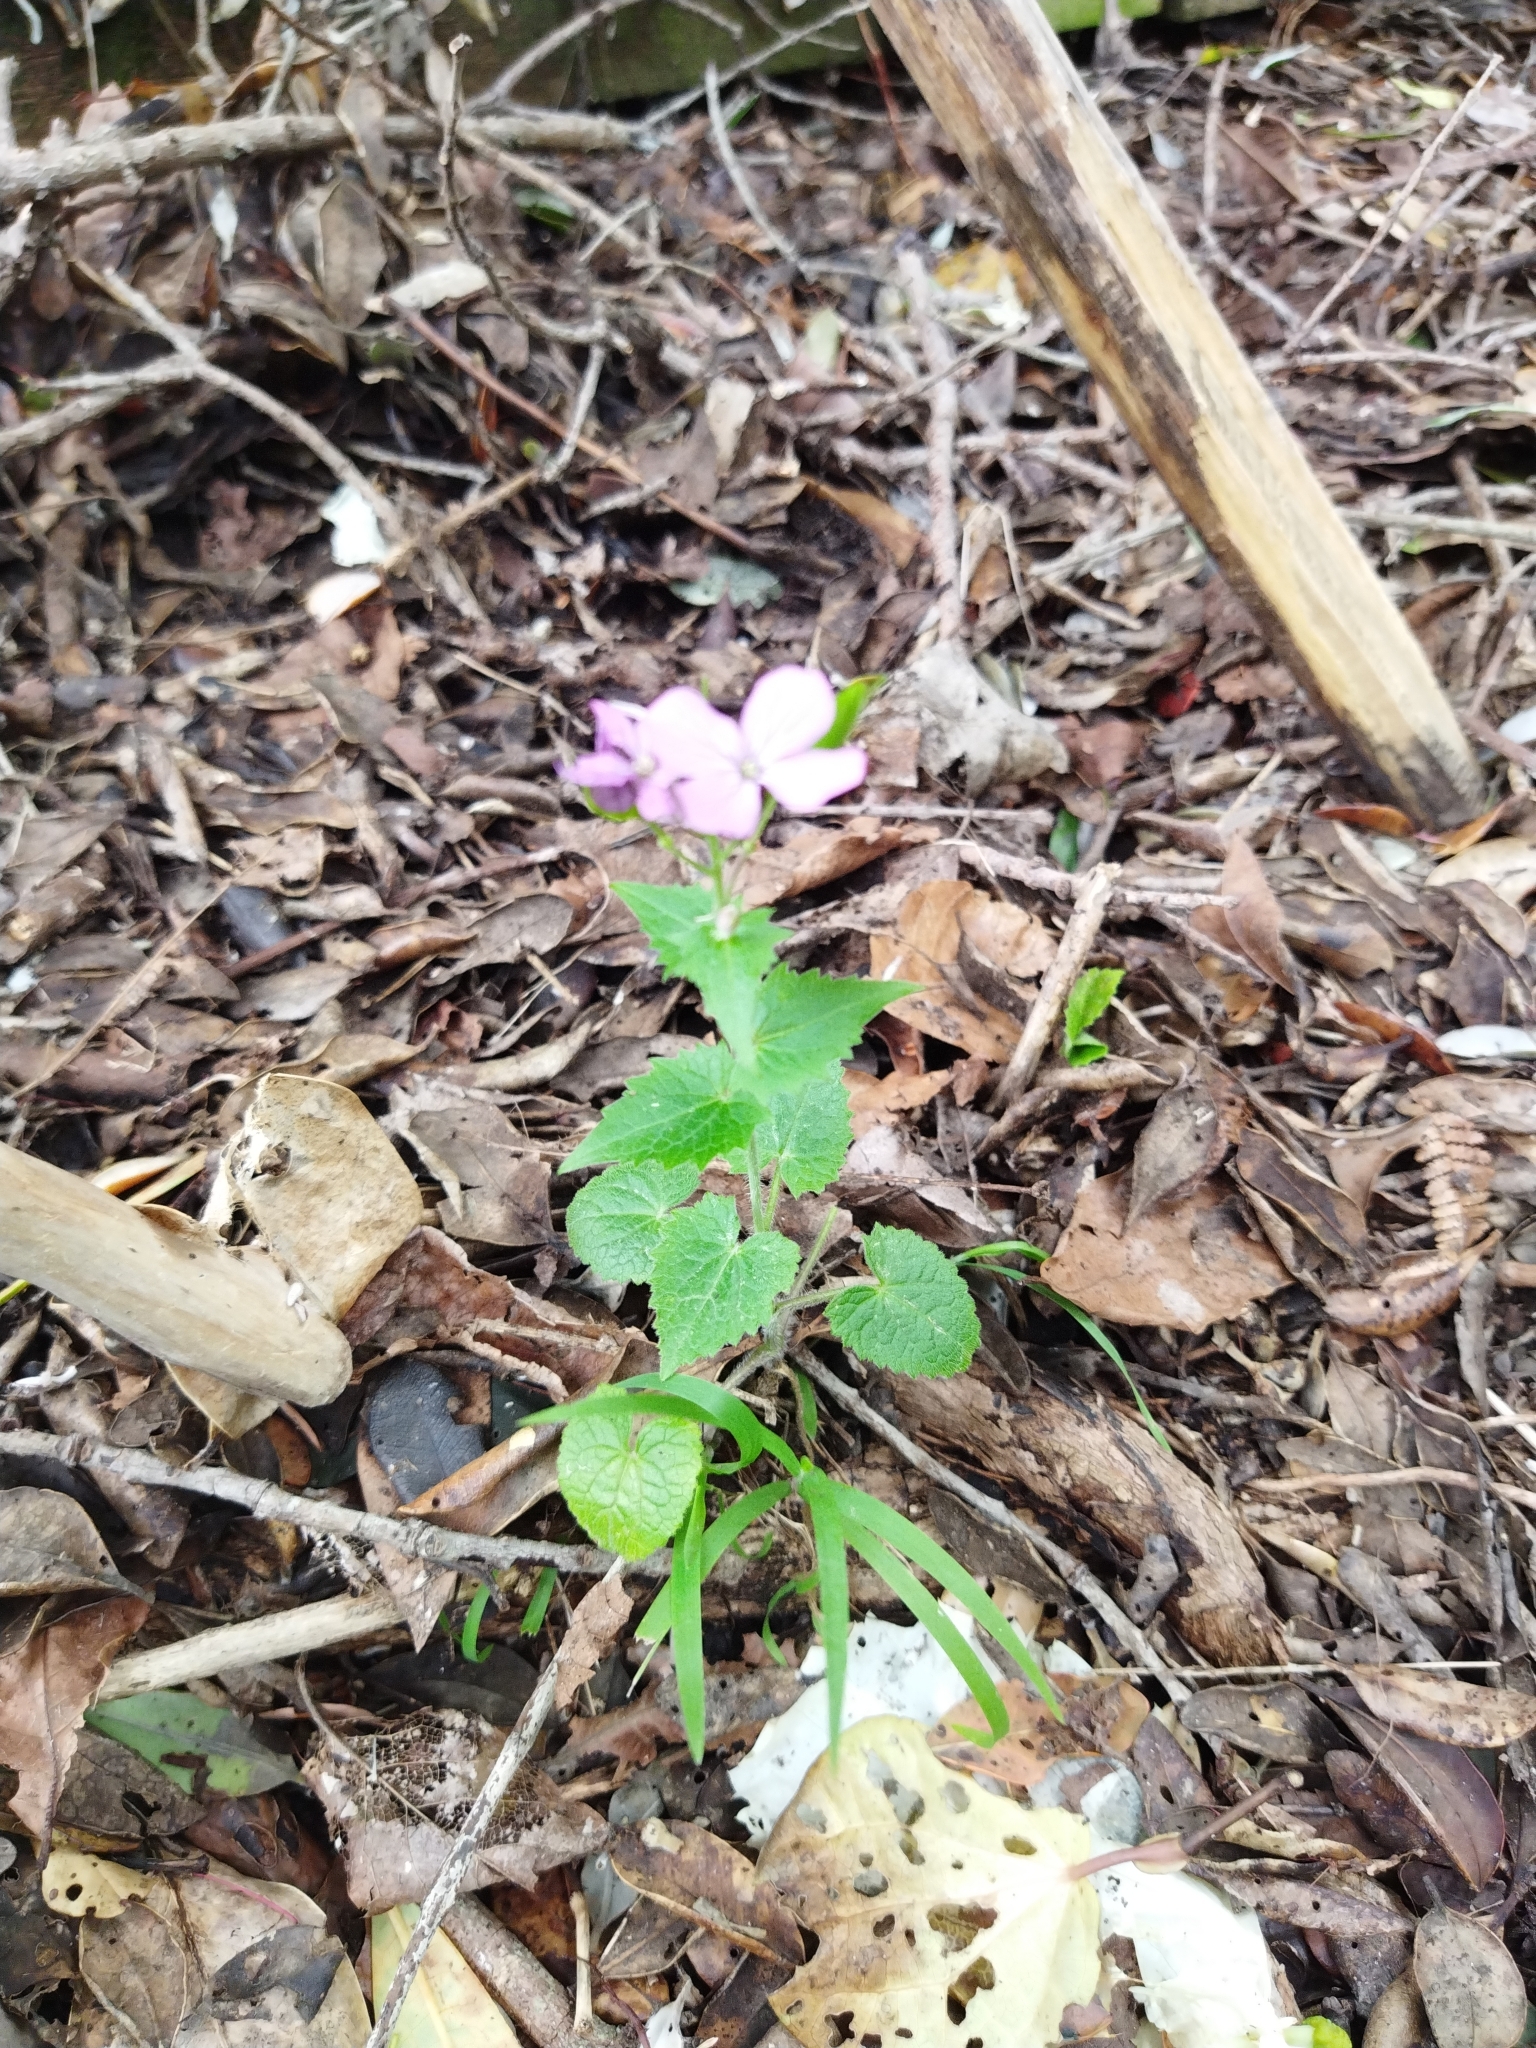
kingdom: Plantae
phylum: Tracheophyta
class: Magnoliopsida
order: Brassicales
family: Brassicaceae
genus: Lunaria
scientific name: Lunaria annua
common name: Honesty
